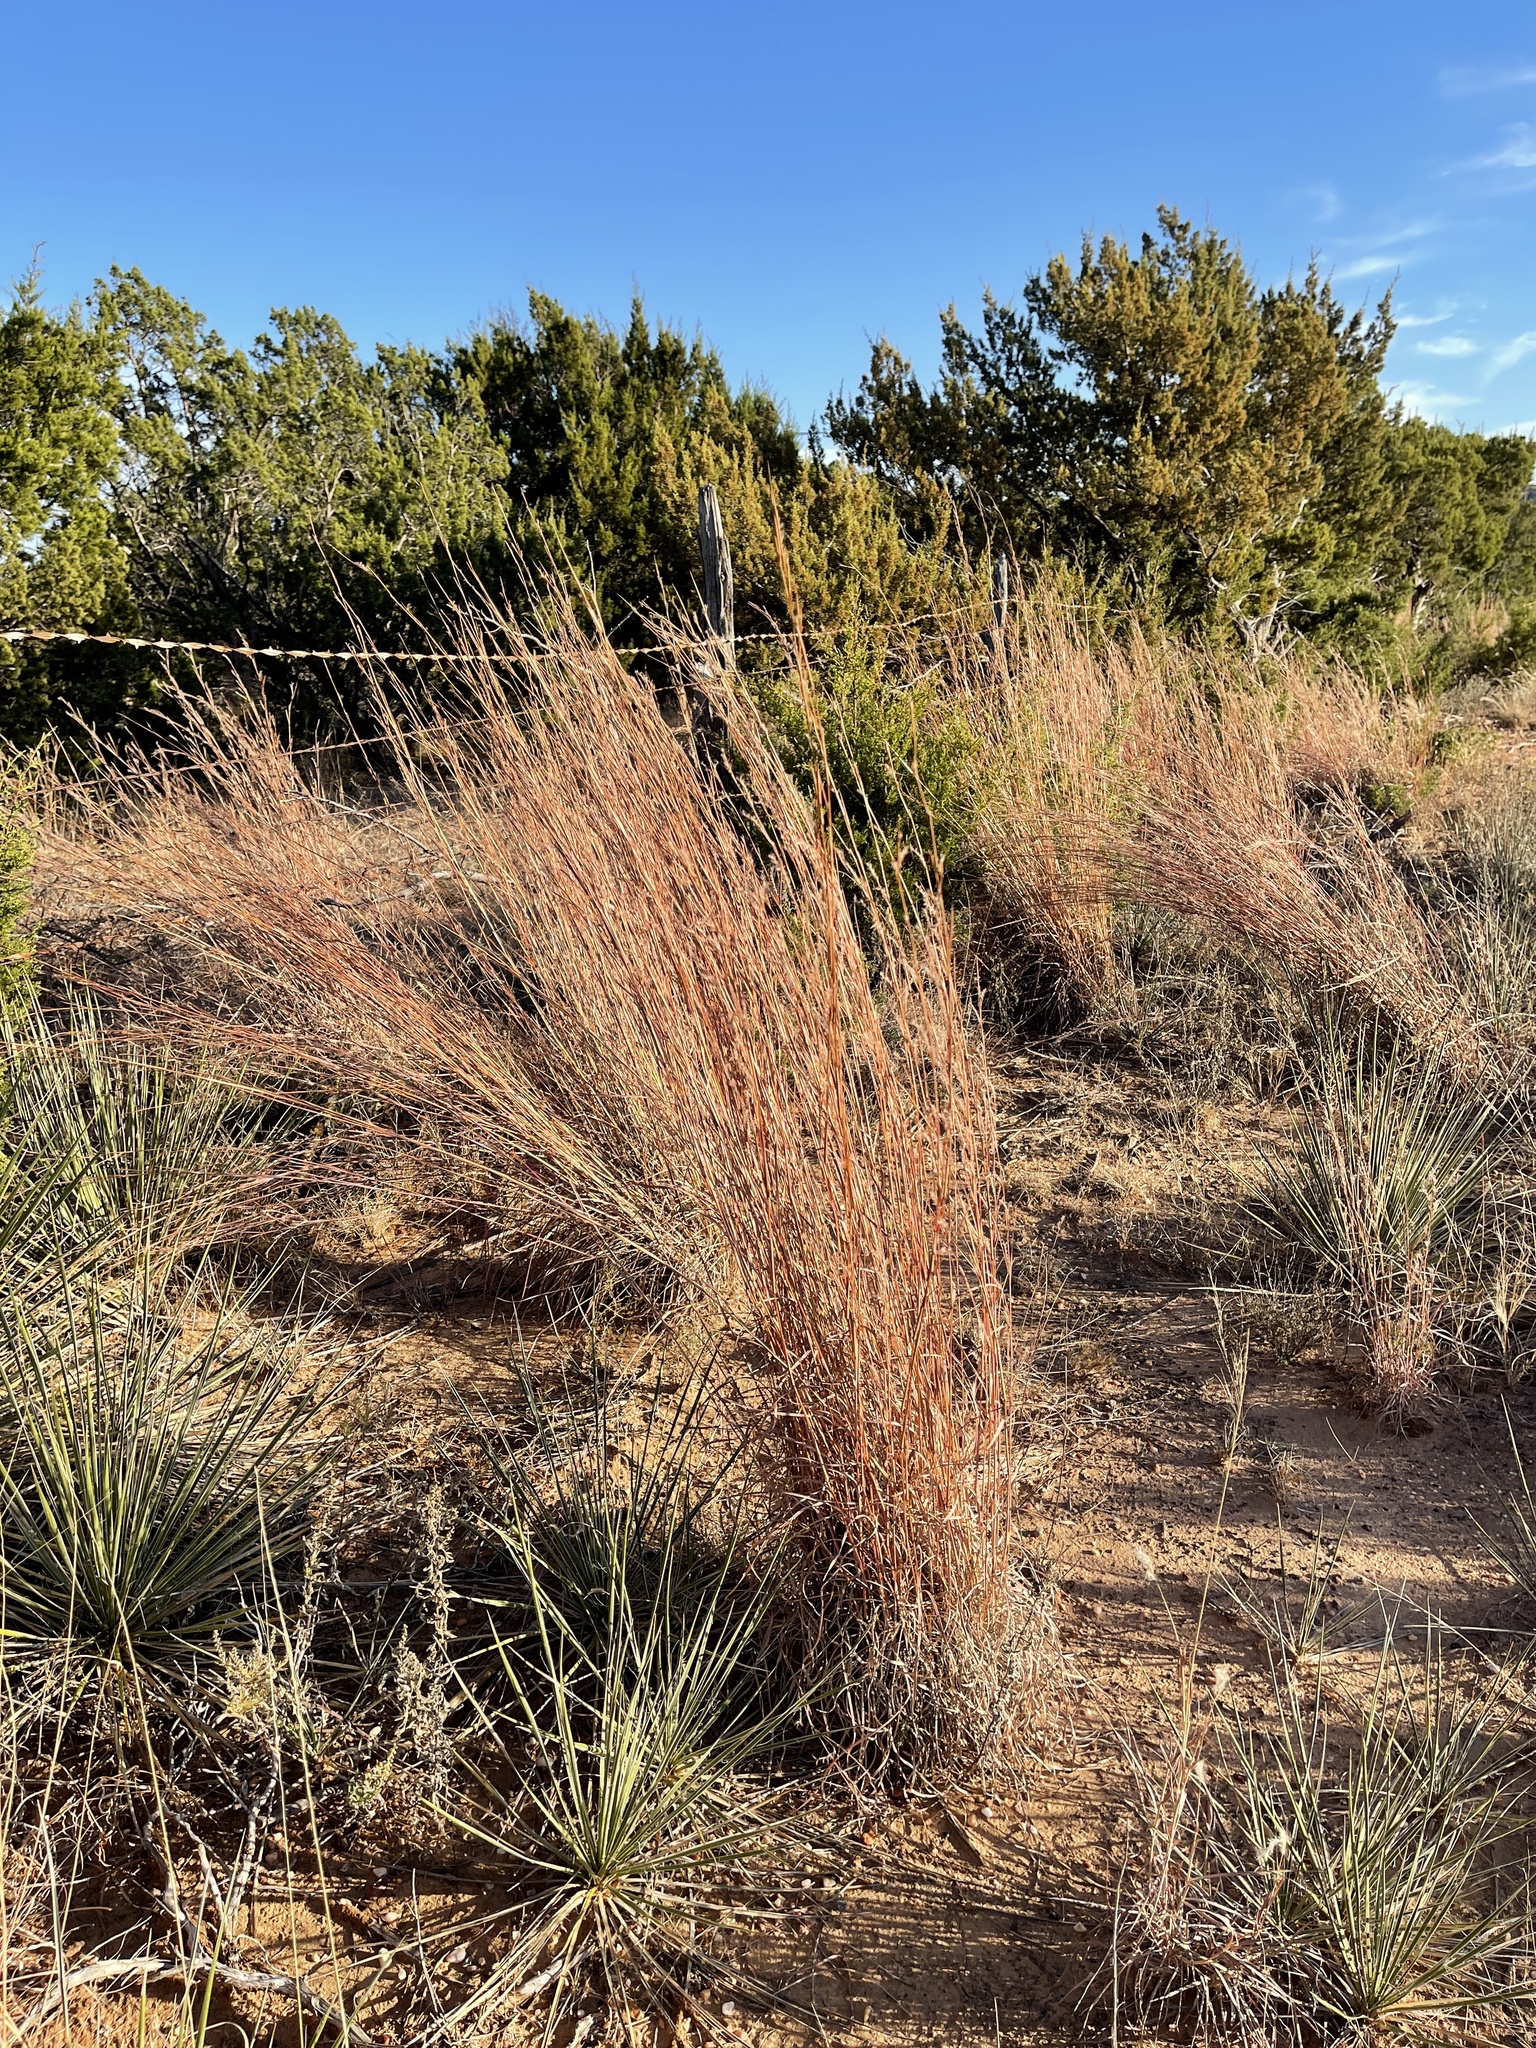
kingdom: Plantae
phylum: Tracheophyta
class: Liliopsida
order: Poales
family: Poaceae
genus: Schizachyrium
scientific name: Schizachyrium scoparium
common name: Little bluestem
